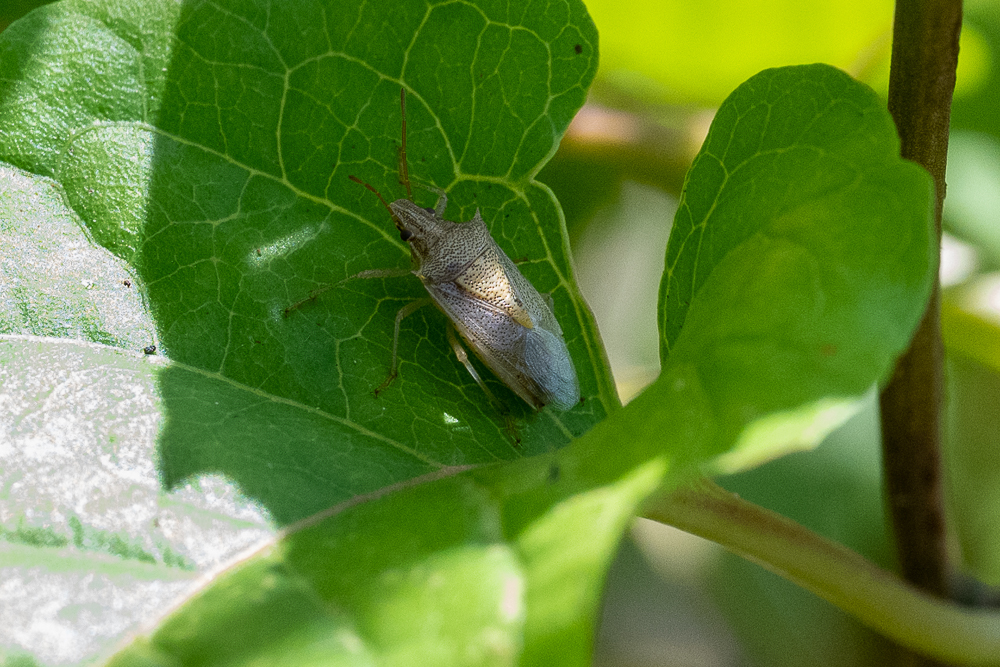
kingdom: Animalia
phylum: Arthropoda
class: Insecta
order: Hemiptera
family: Pentatomidae
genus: Oebalus
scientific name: Oebalus pugnax
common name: Rice stink bug
